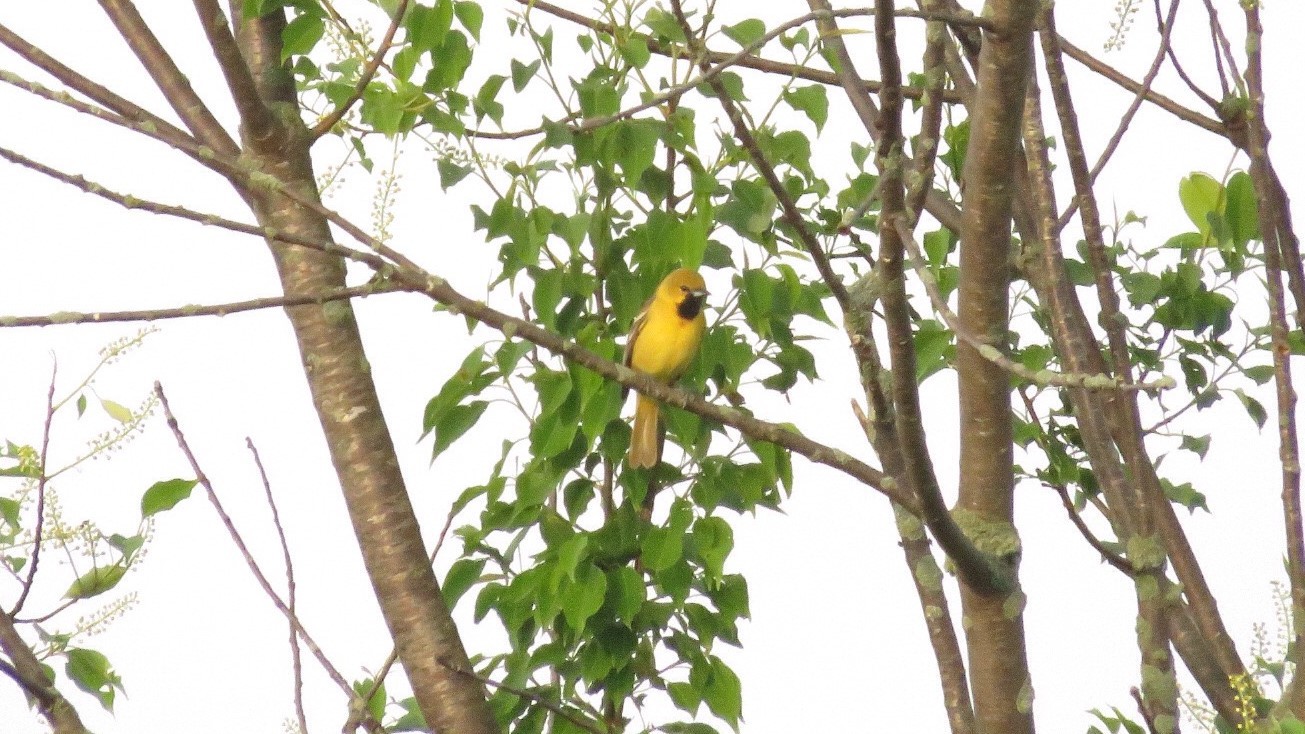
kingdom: Animalia
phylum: Chordata
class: Aves
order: Passeriformes
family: Icteridae
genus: Icterus
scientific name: Icterus spurius
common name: Orchard oriole
